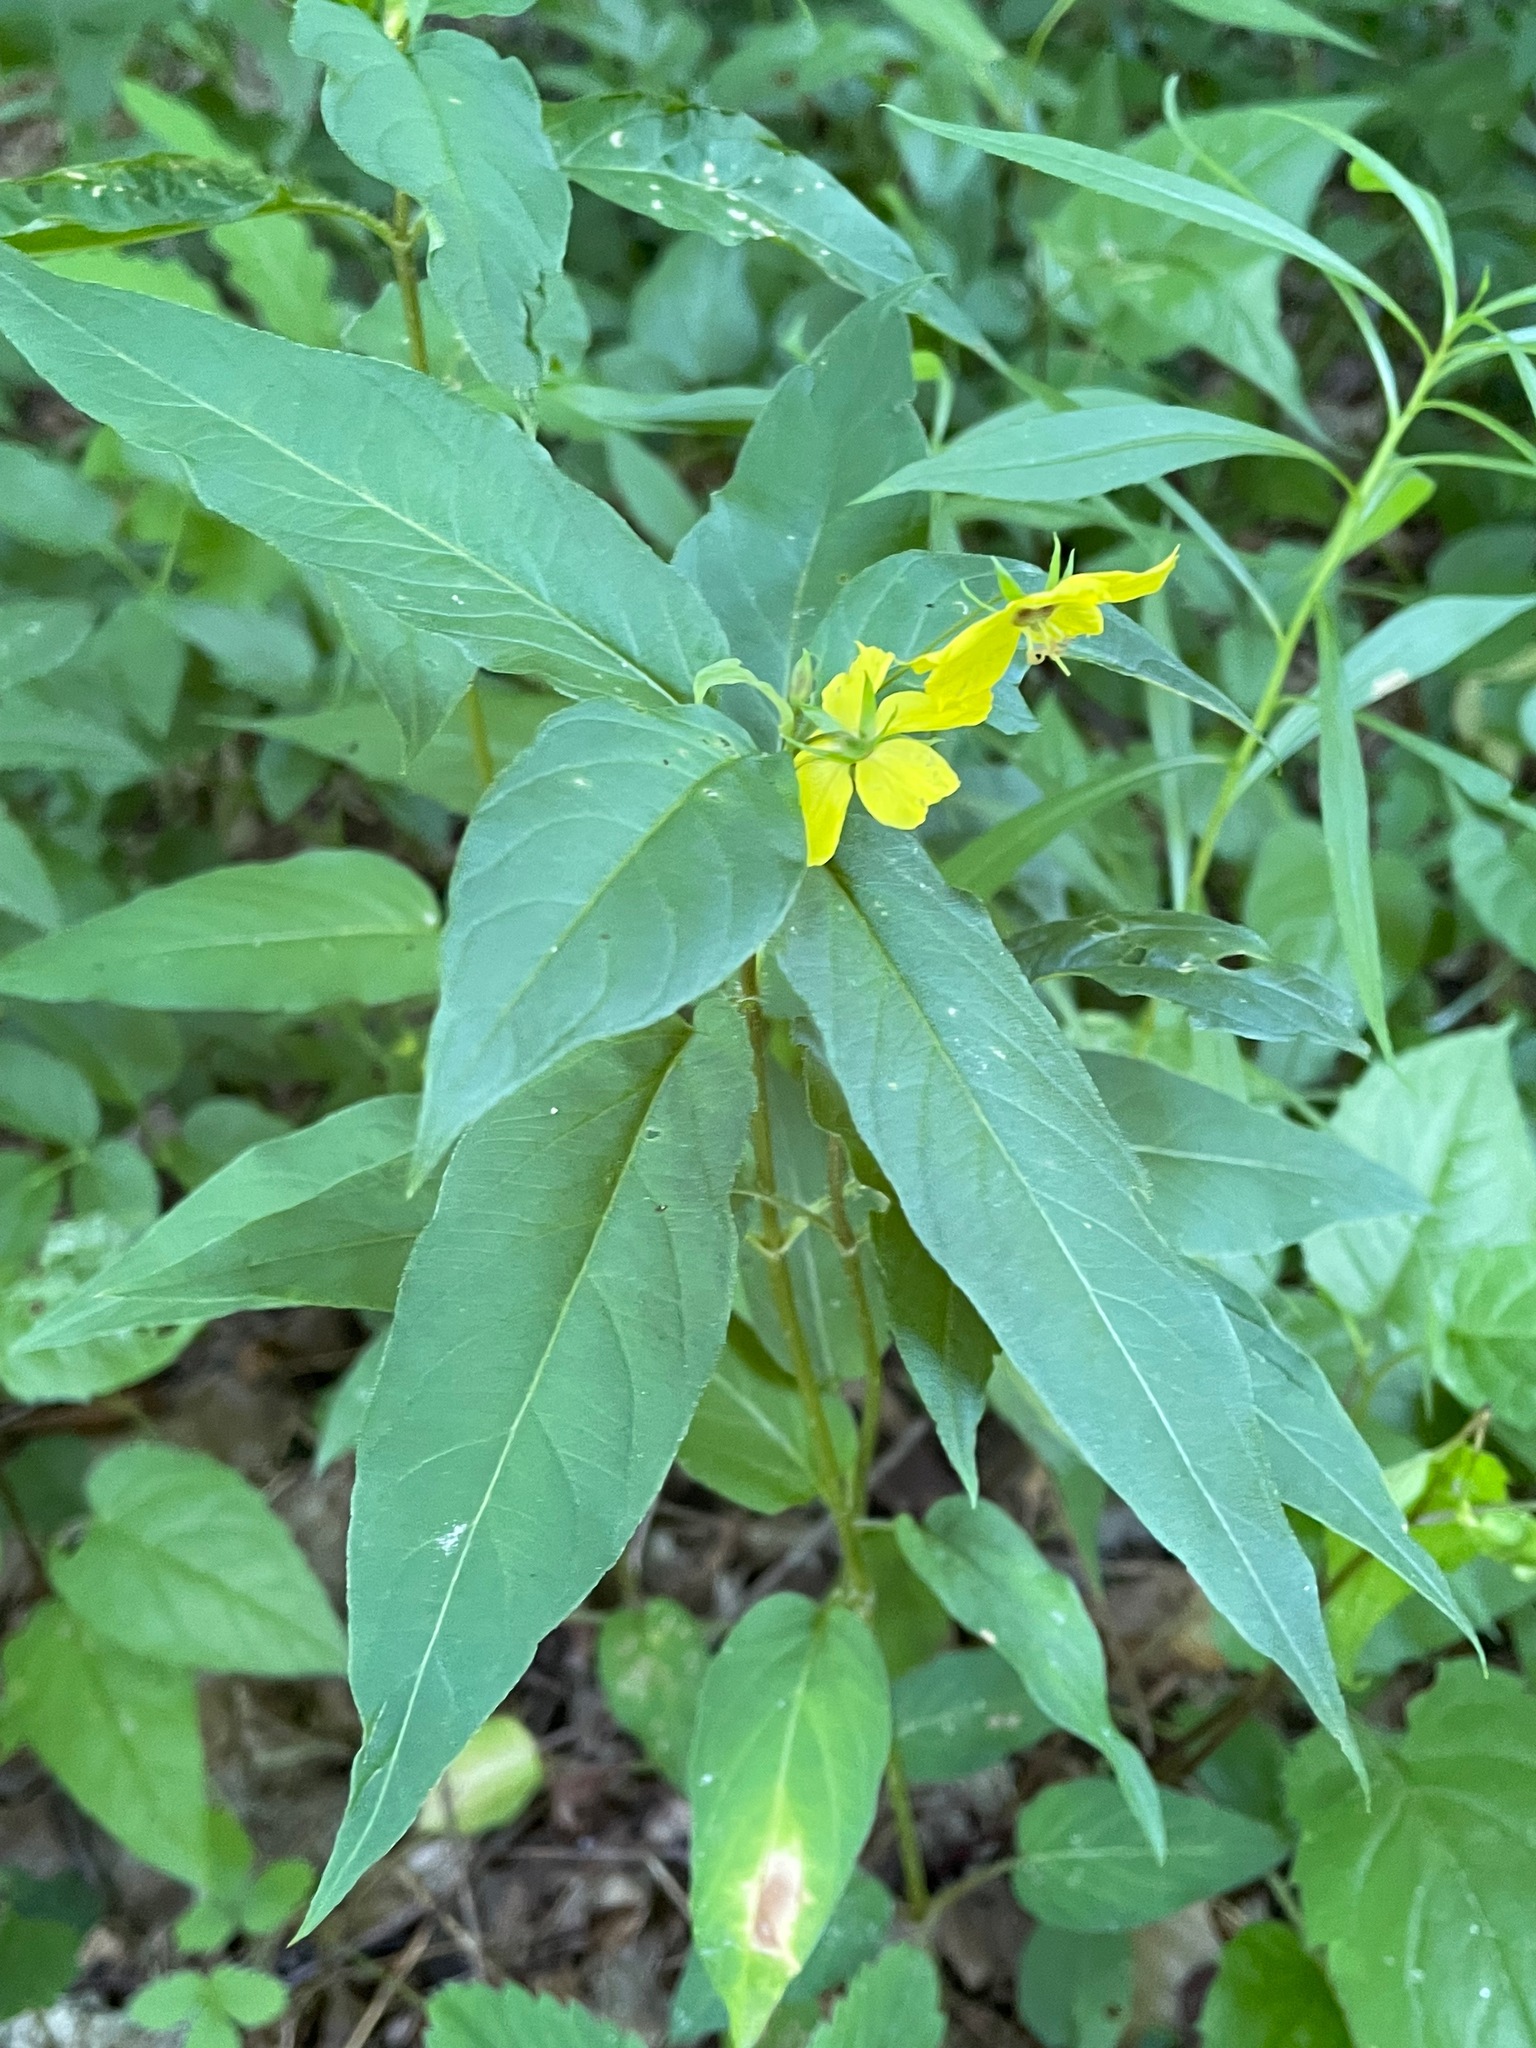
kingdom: Plantae
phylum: Tracheophyta
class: Magnoliopsida
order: Ericales
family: Primulaceae
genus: Lysimachia
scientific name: Lysimachia ciliata
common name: Fringed loosestrife
